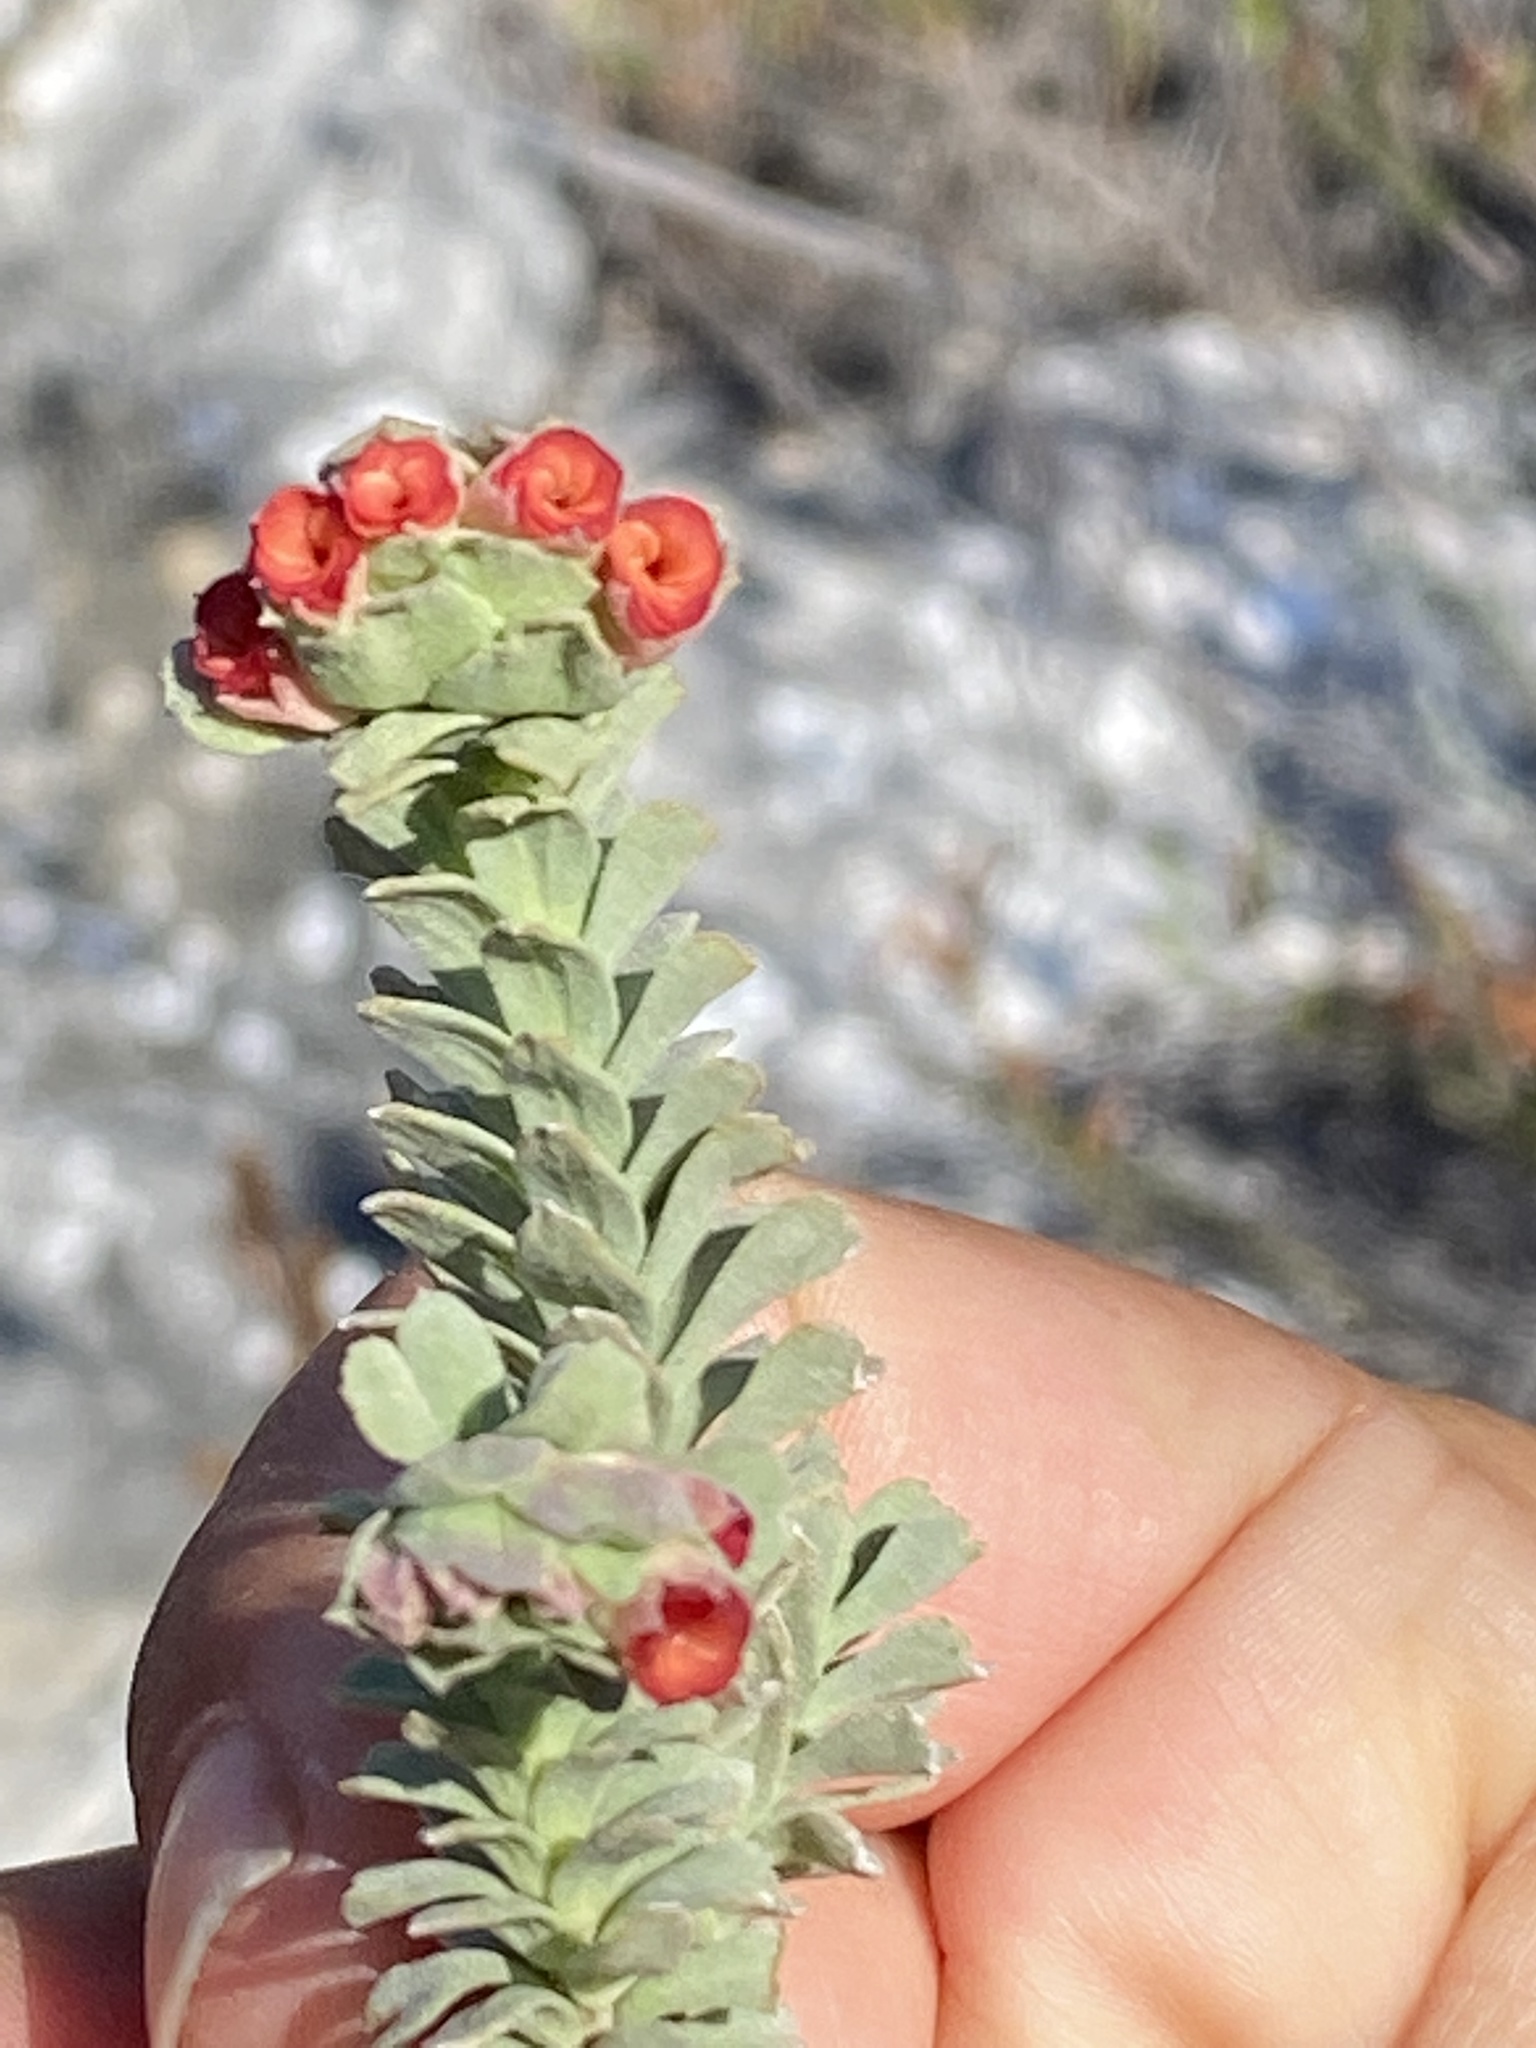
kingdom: Plantae
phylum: Tracheophyta
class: Magnoliopsida
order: Malvales
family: Malvaceae
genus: Hermannia
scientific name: Hermannia trifoliata
